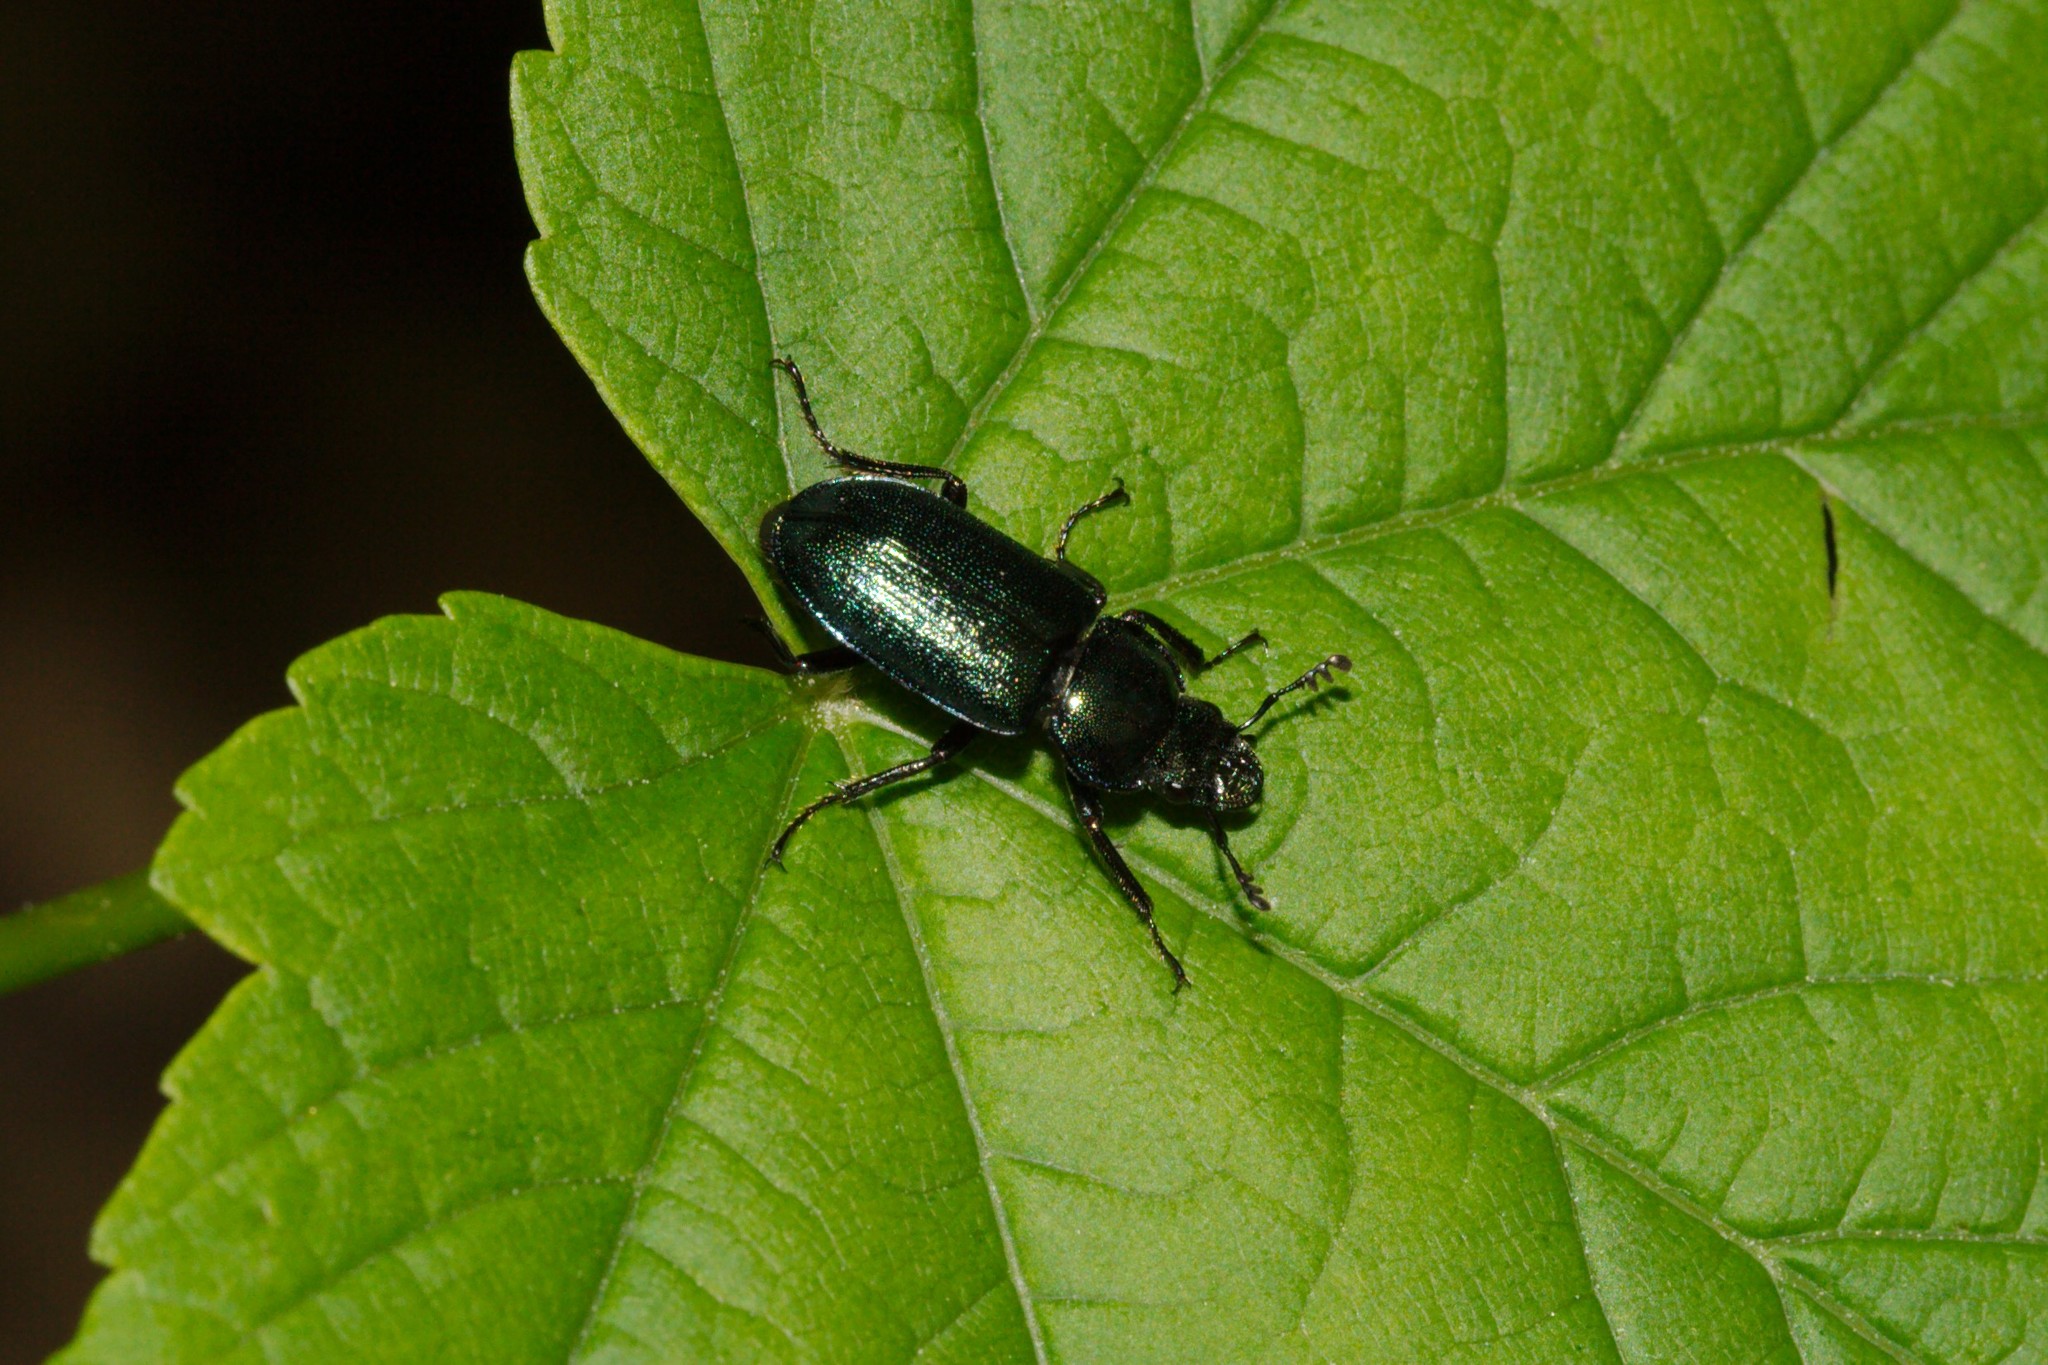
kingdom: Animalia
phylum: Arthropoda
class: Insecta
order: Coleoptera
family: Lucanidae
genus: Platycerus
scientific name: Platycerus caraboides
